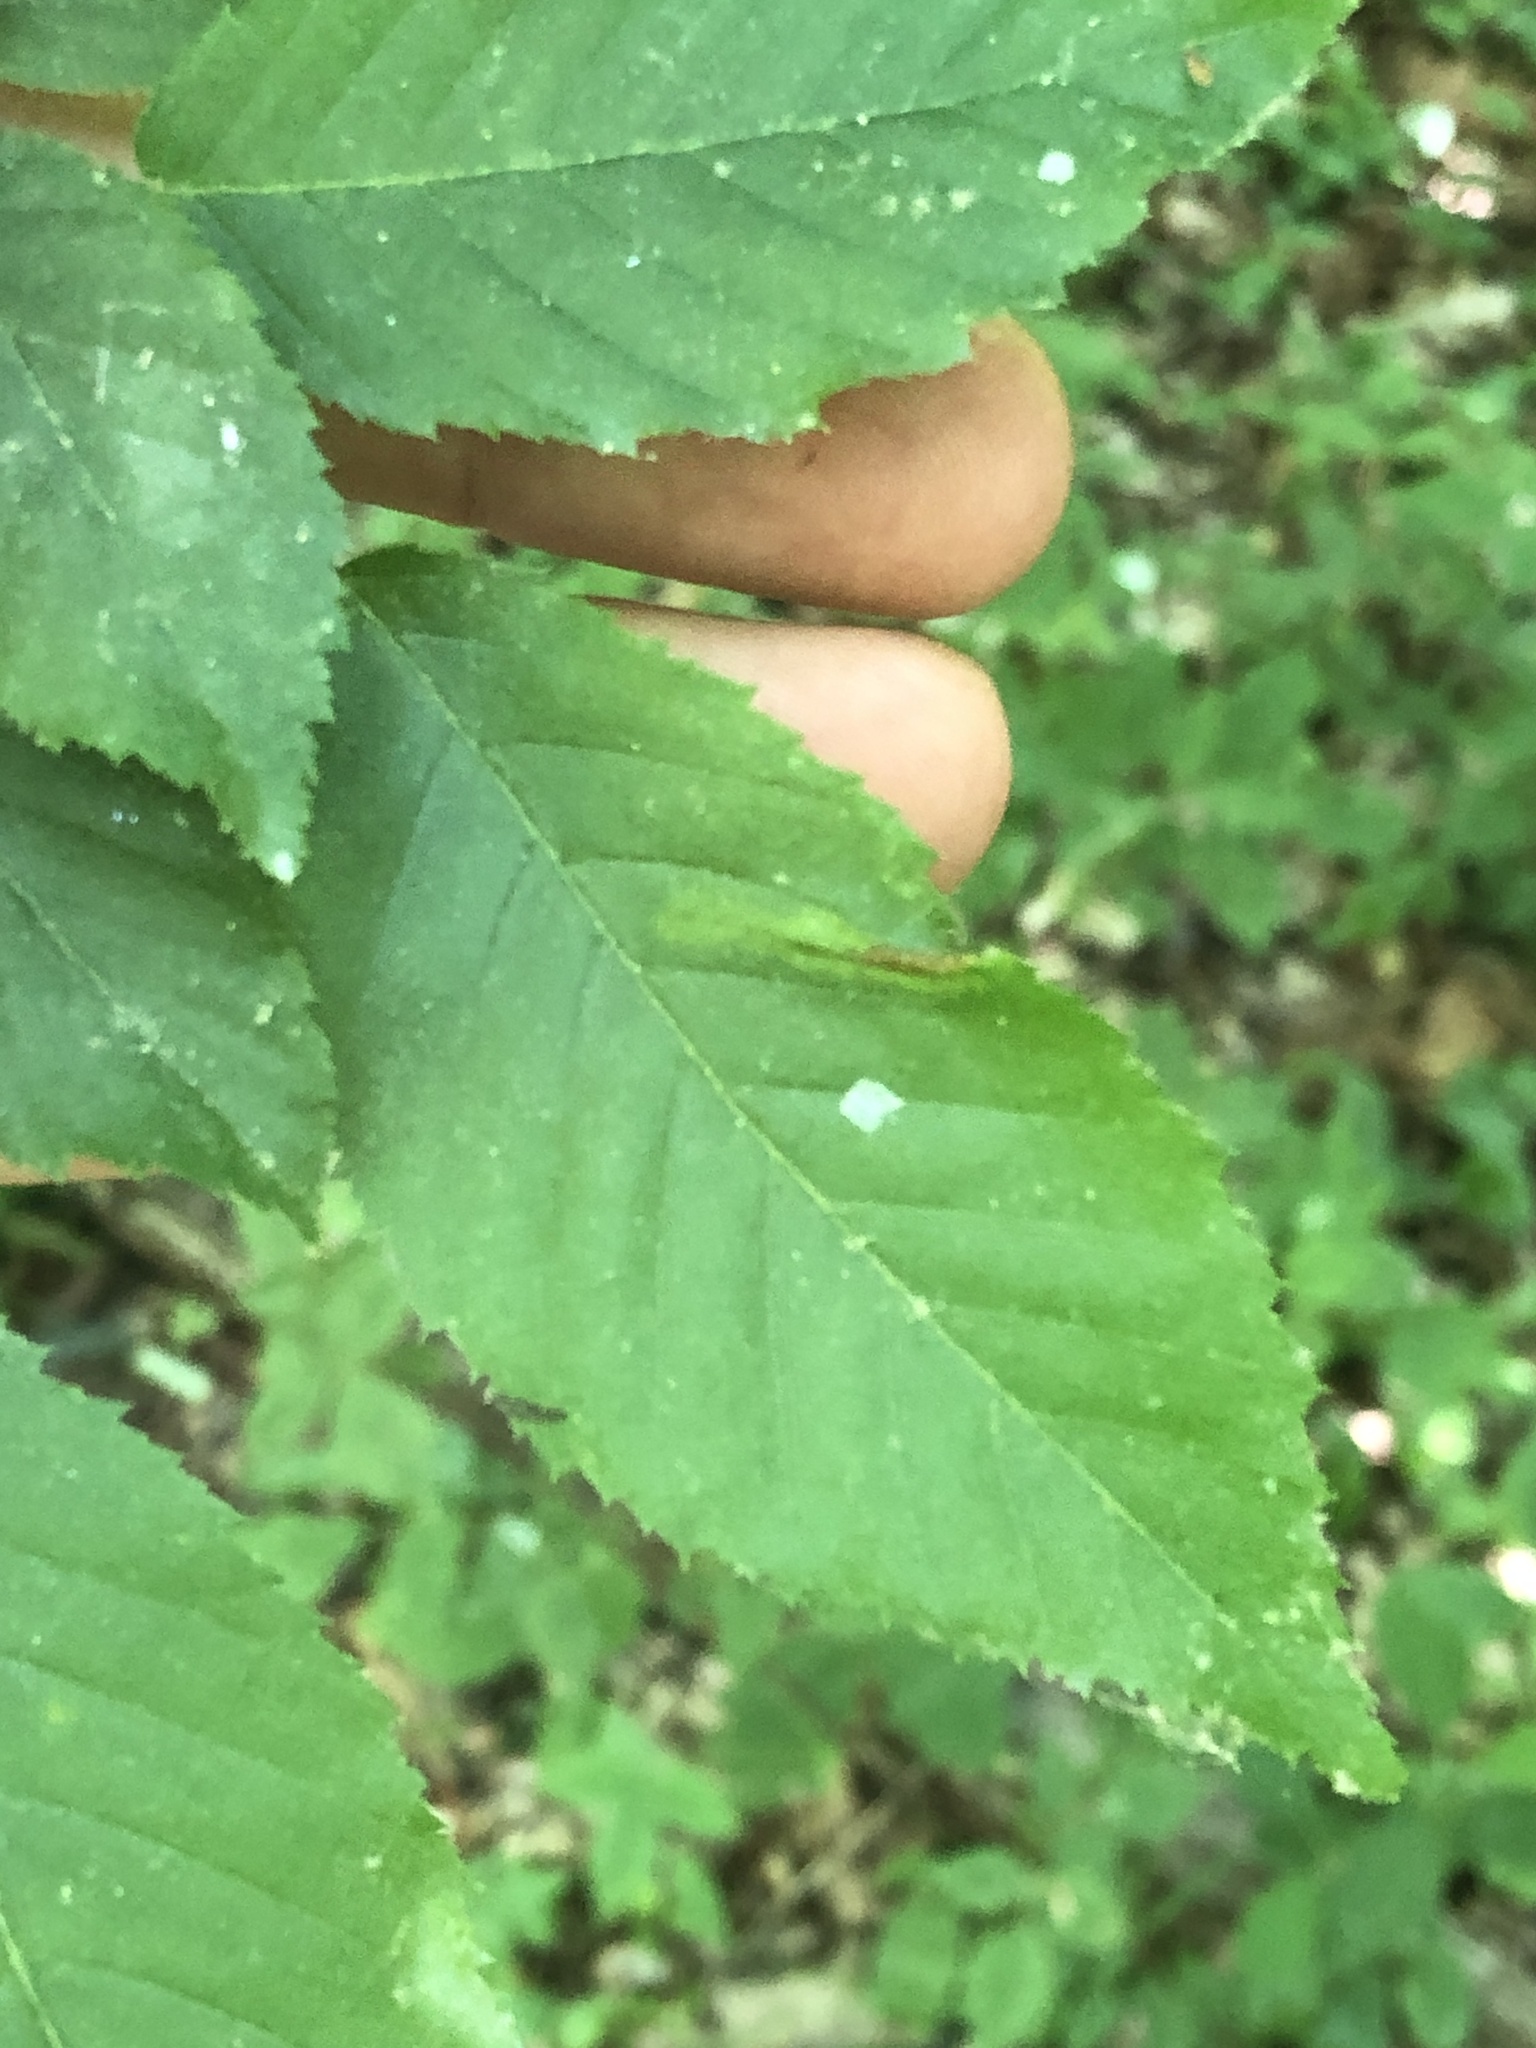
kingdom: Animalia
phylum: Arthropoda
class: Insecta
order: Diptera
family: Cecidomyiidae
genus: Dasineura
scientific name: Dasineura pudibunda
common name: Hornbeam leaf gall midge
